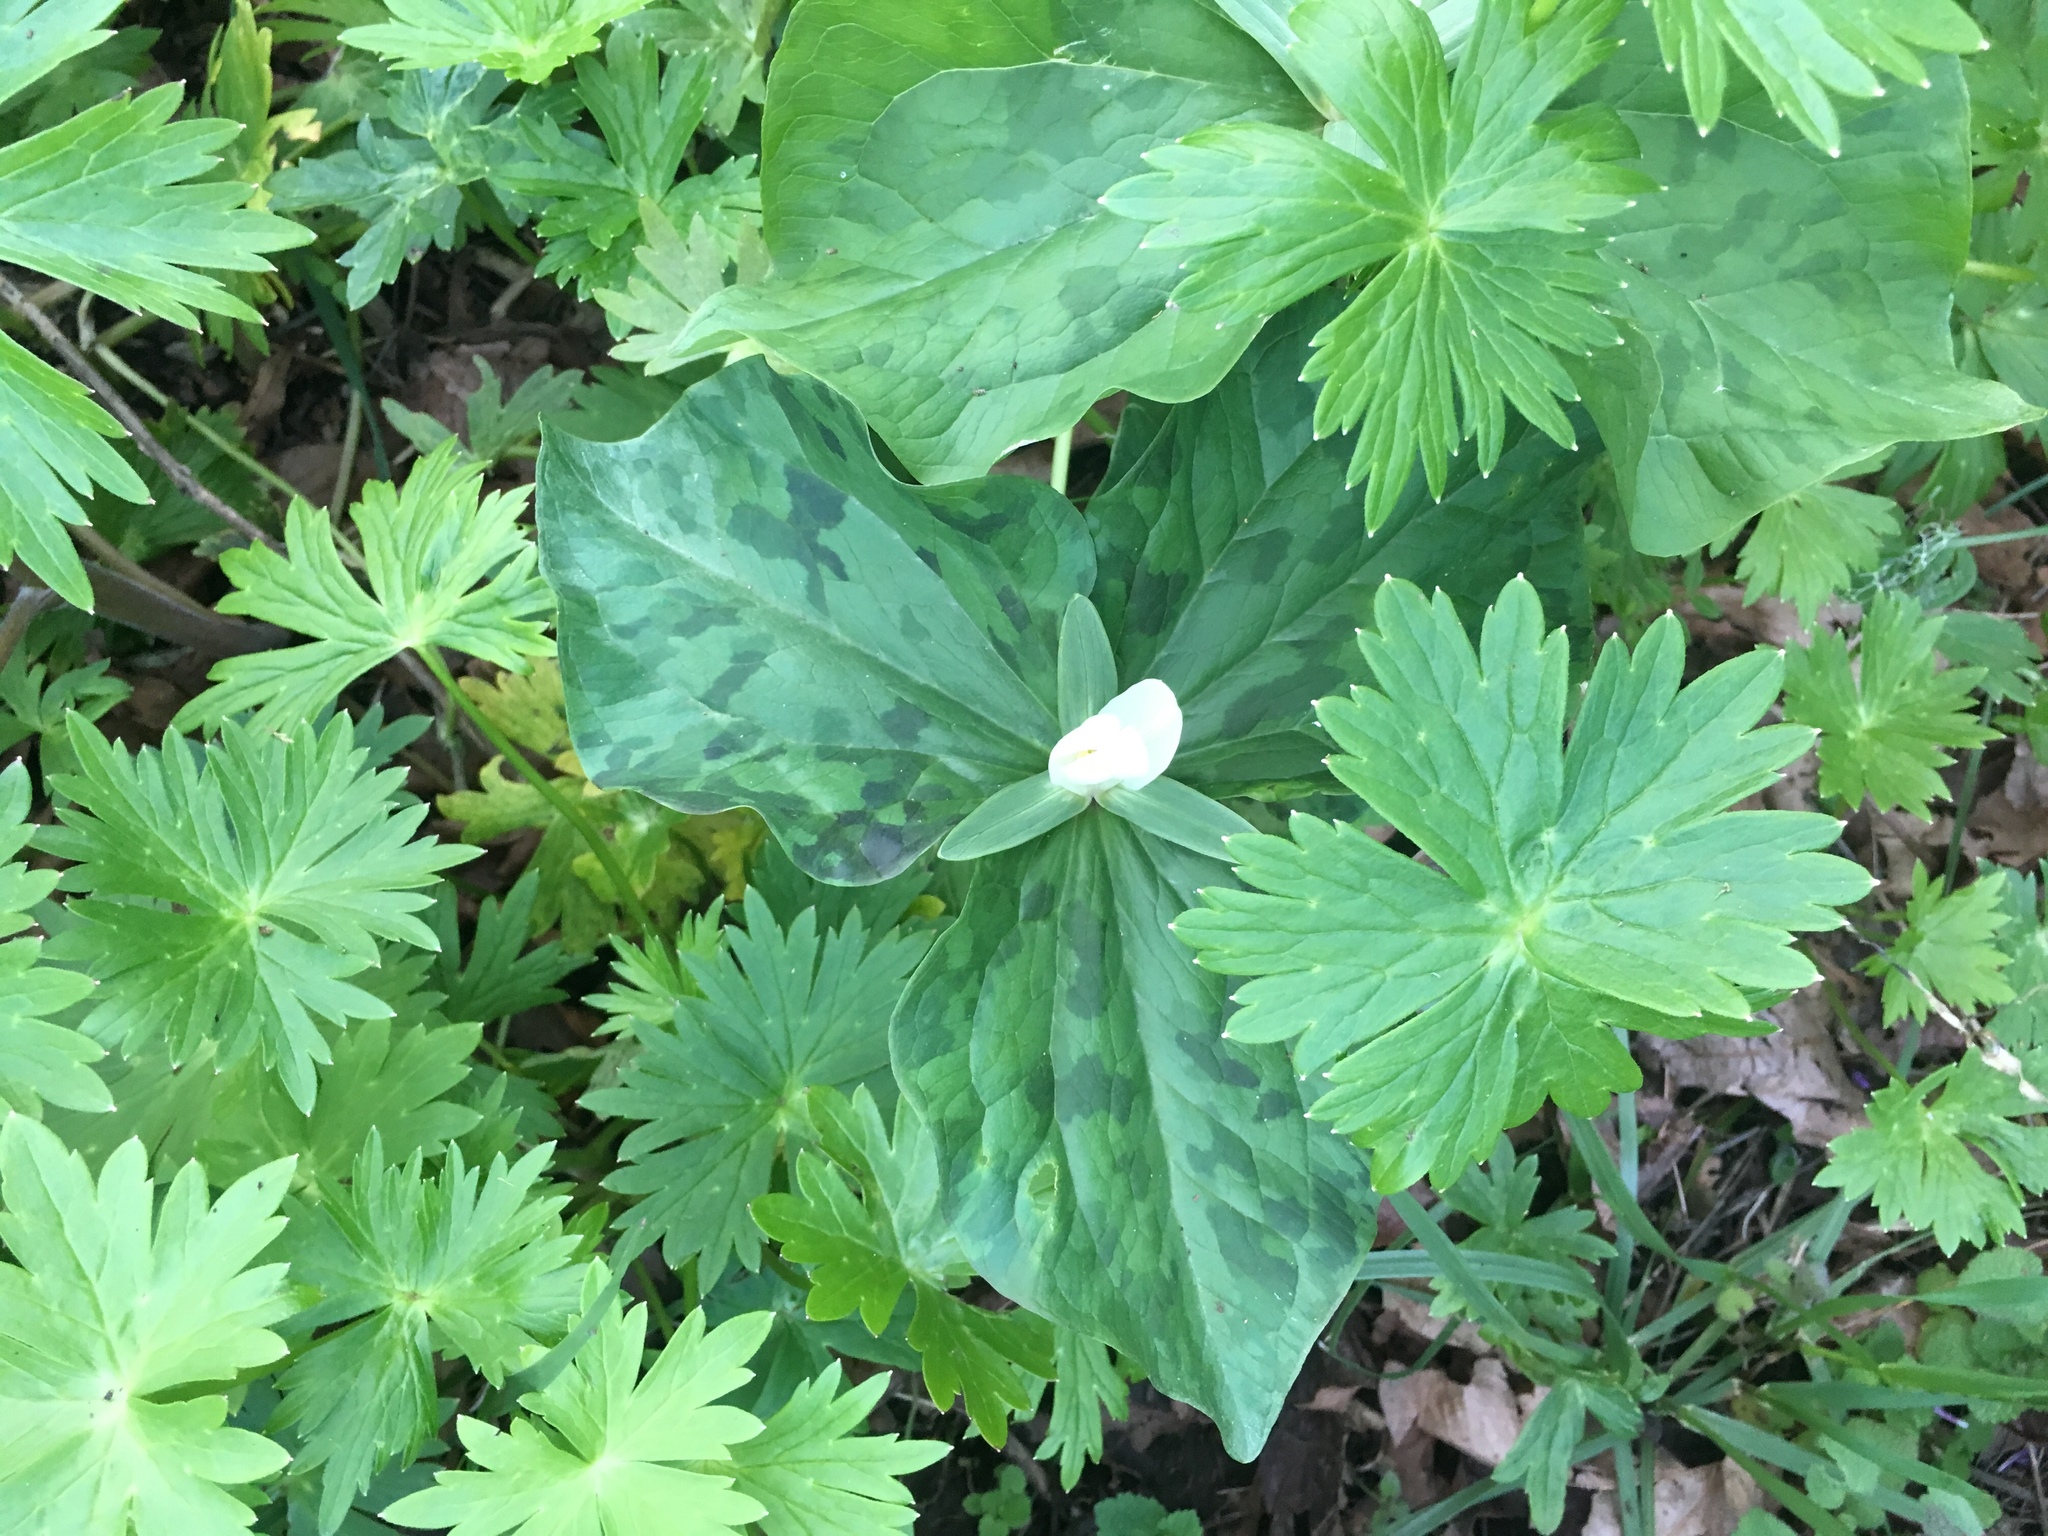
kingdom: Plantae
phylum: Tracheophyta
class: Liliopsida
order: Liliales
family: Melanthiaceae
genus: Trillium
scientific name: Trillium albidum
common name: Freeman's trillium
